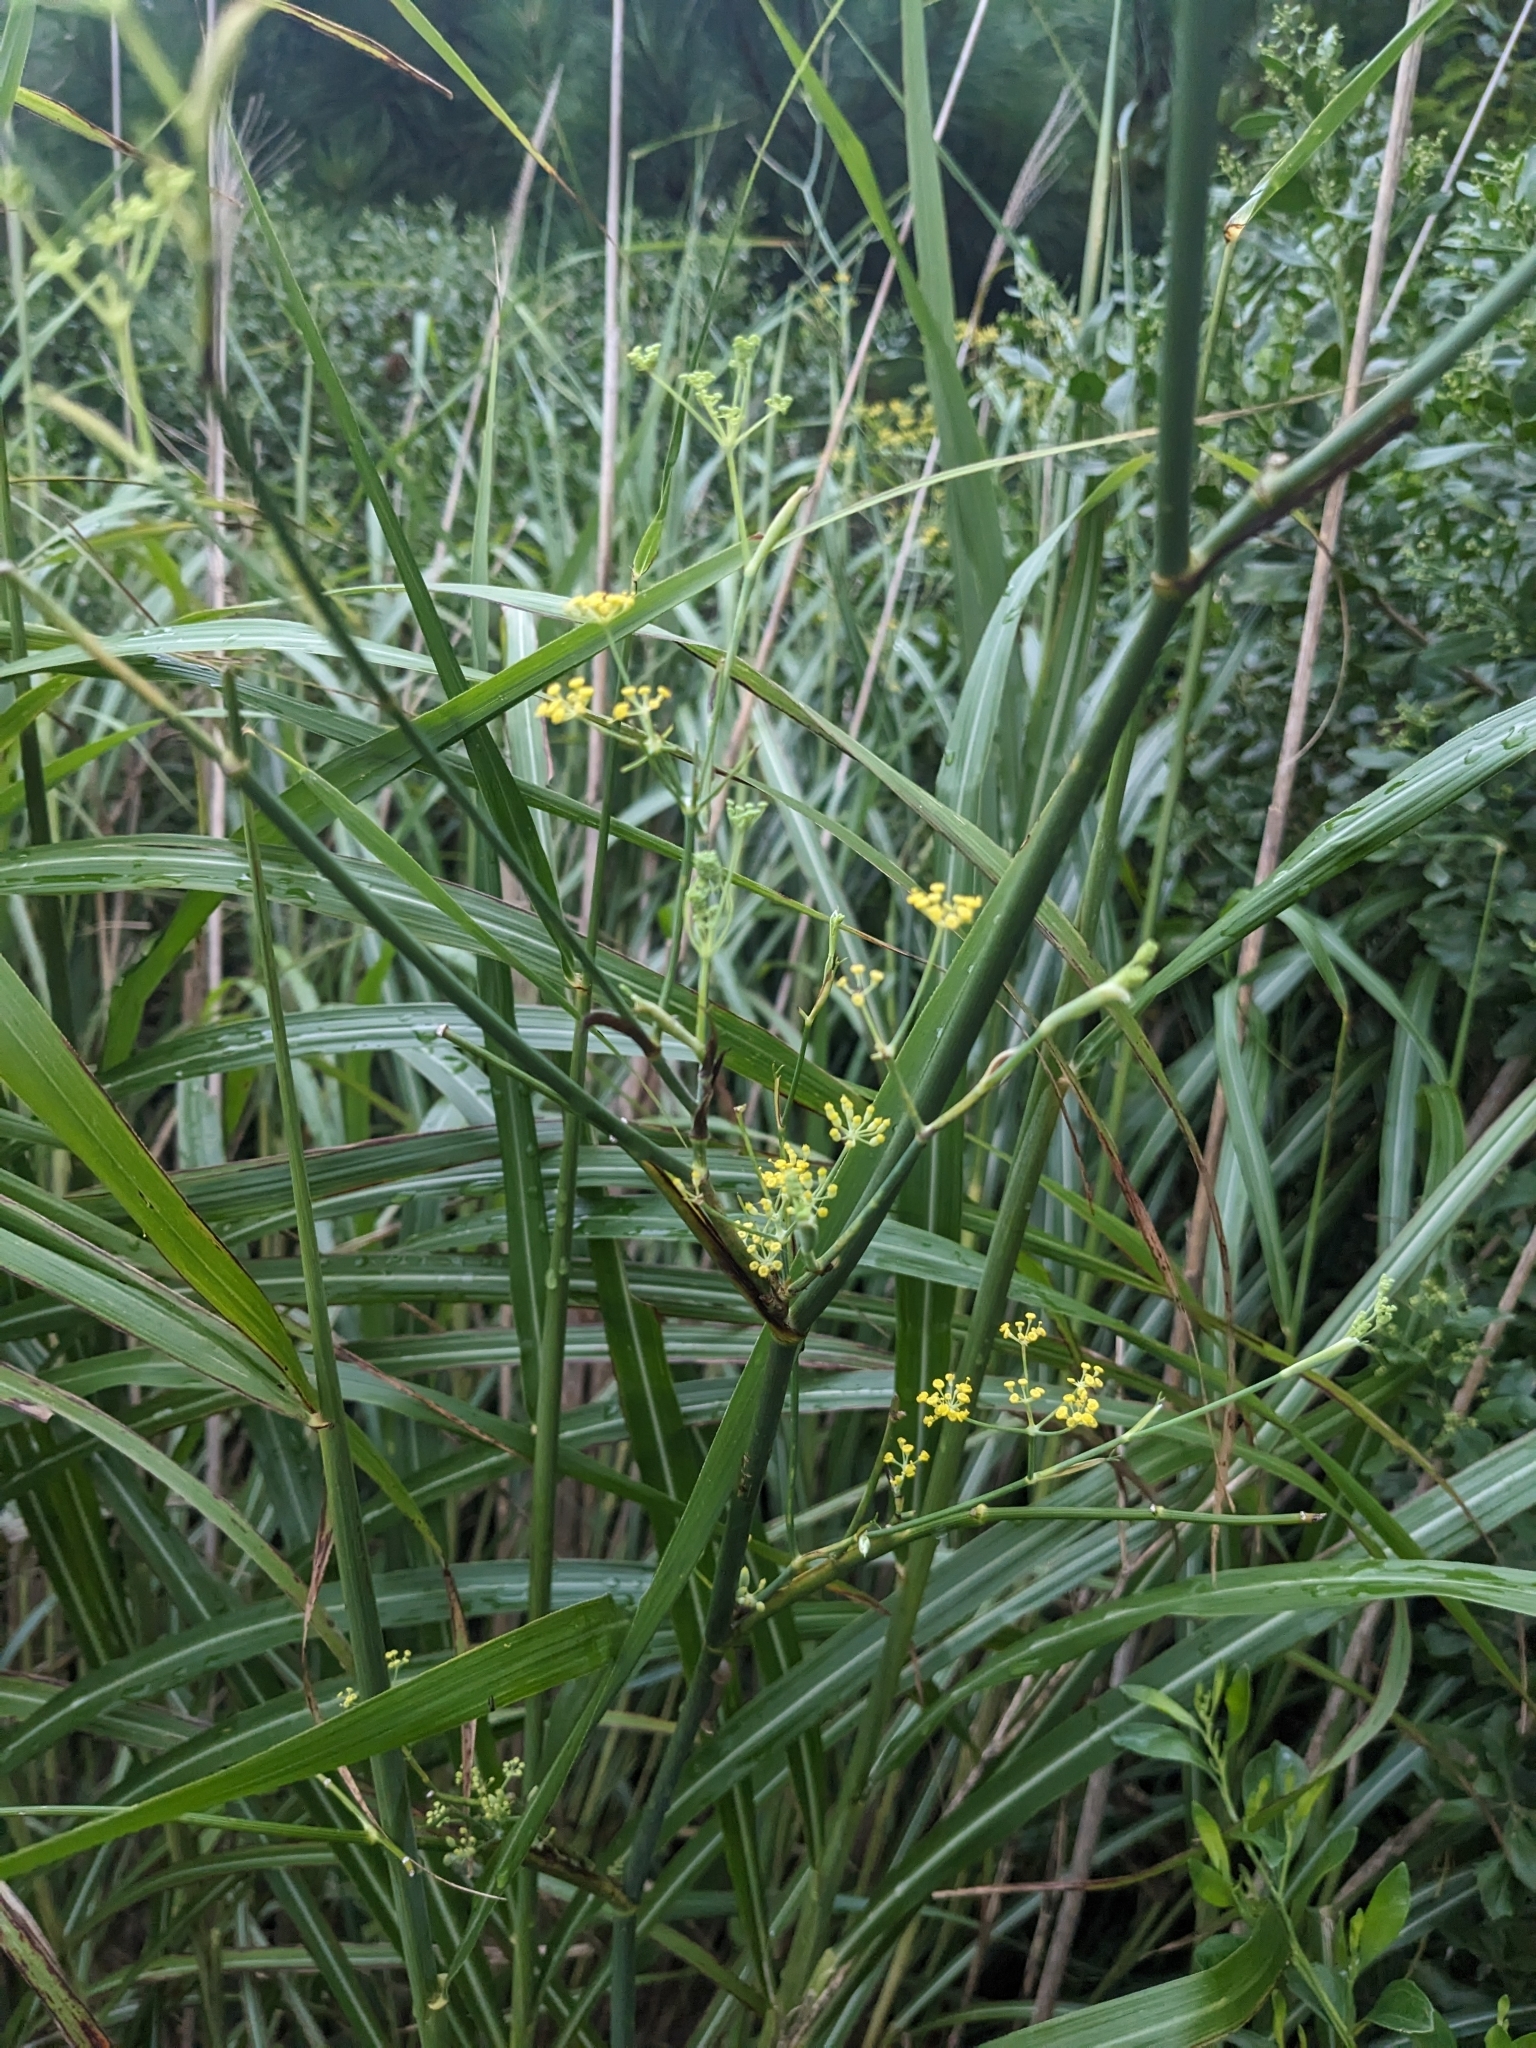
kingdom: Plantae
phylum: Tracheophyta
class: Magnoliopsida
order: Apiales
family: Apiaceae
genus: Foeniculum
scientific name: Foeniculum vulgare
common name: Fennel
